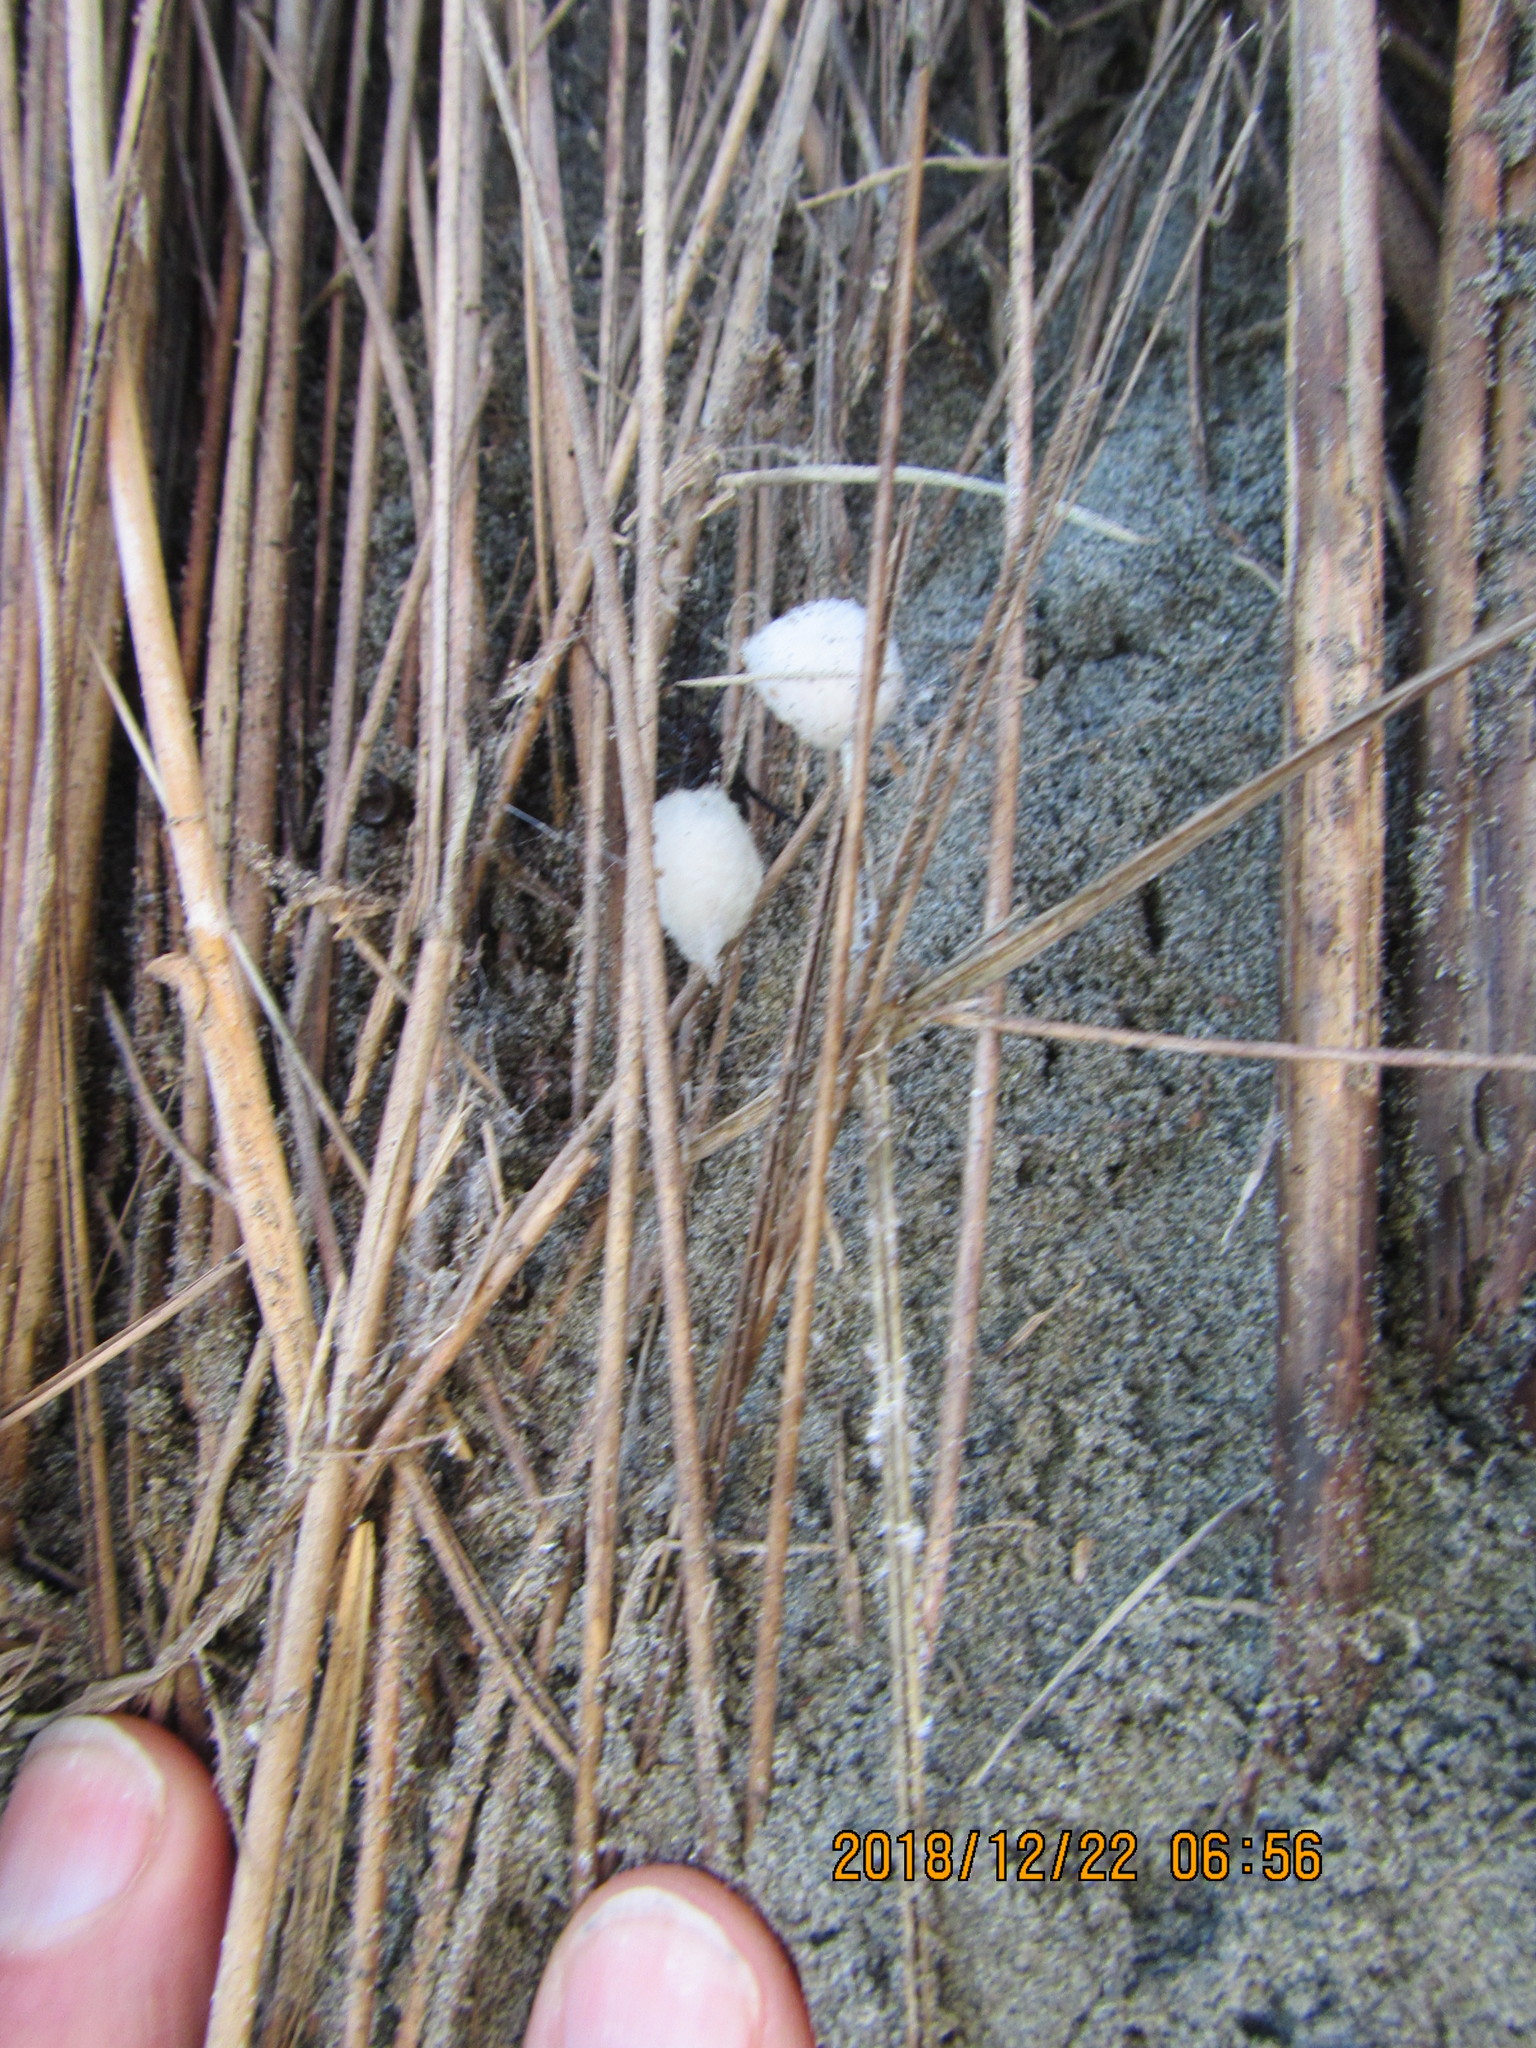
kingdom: Animalia
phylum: Arthropoda
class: Arachnida
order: Araneae
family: Theridiidae
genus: Steatoda
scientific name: Steatoda capensis
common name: Cobweb weaver
